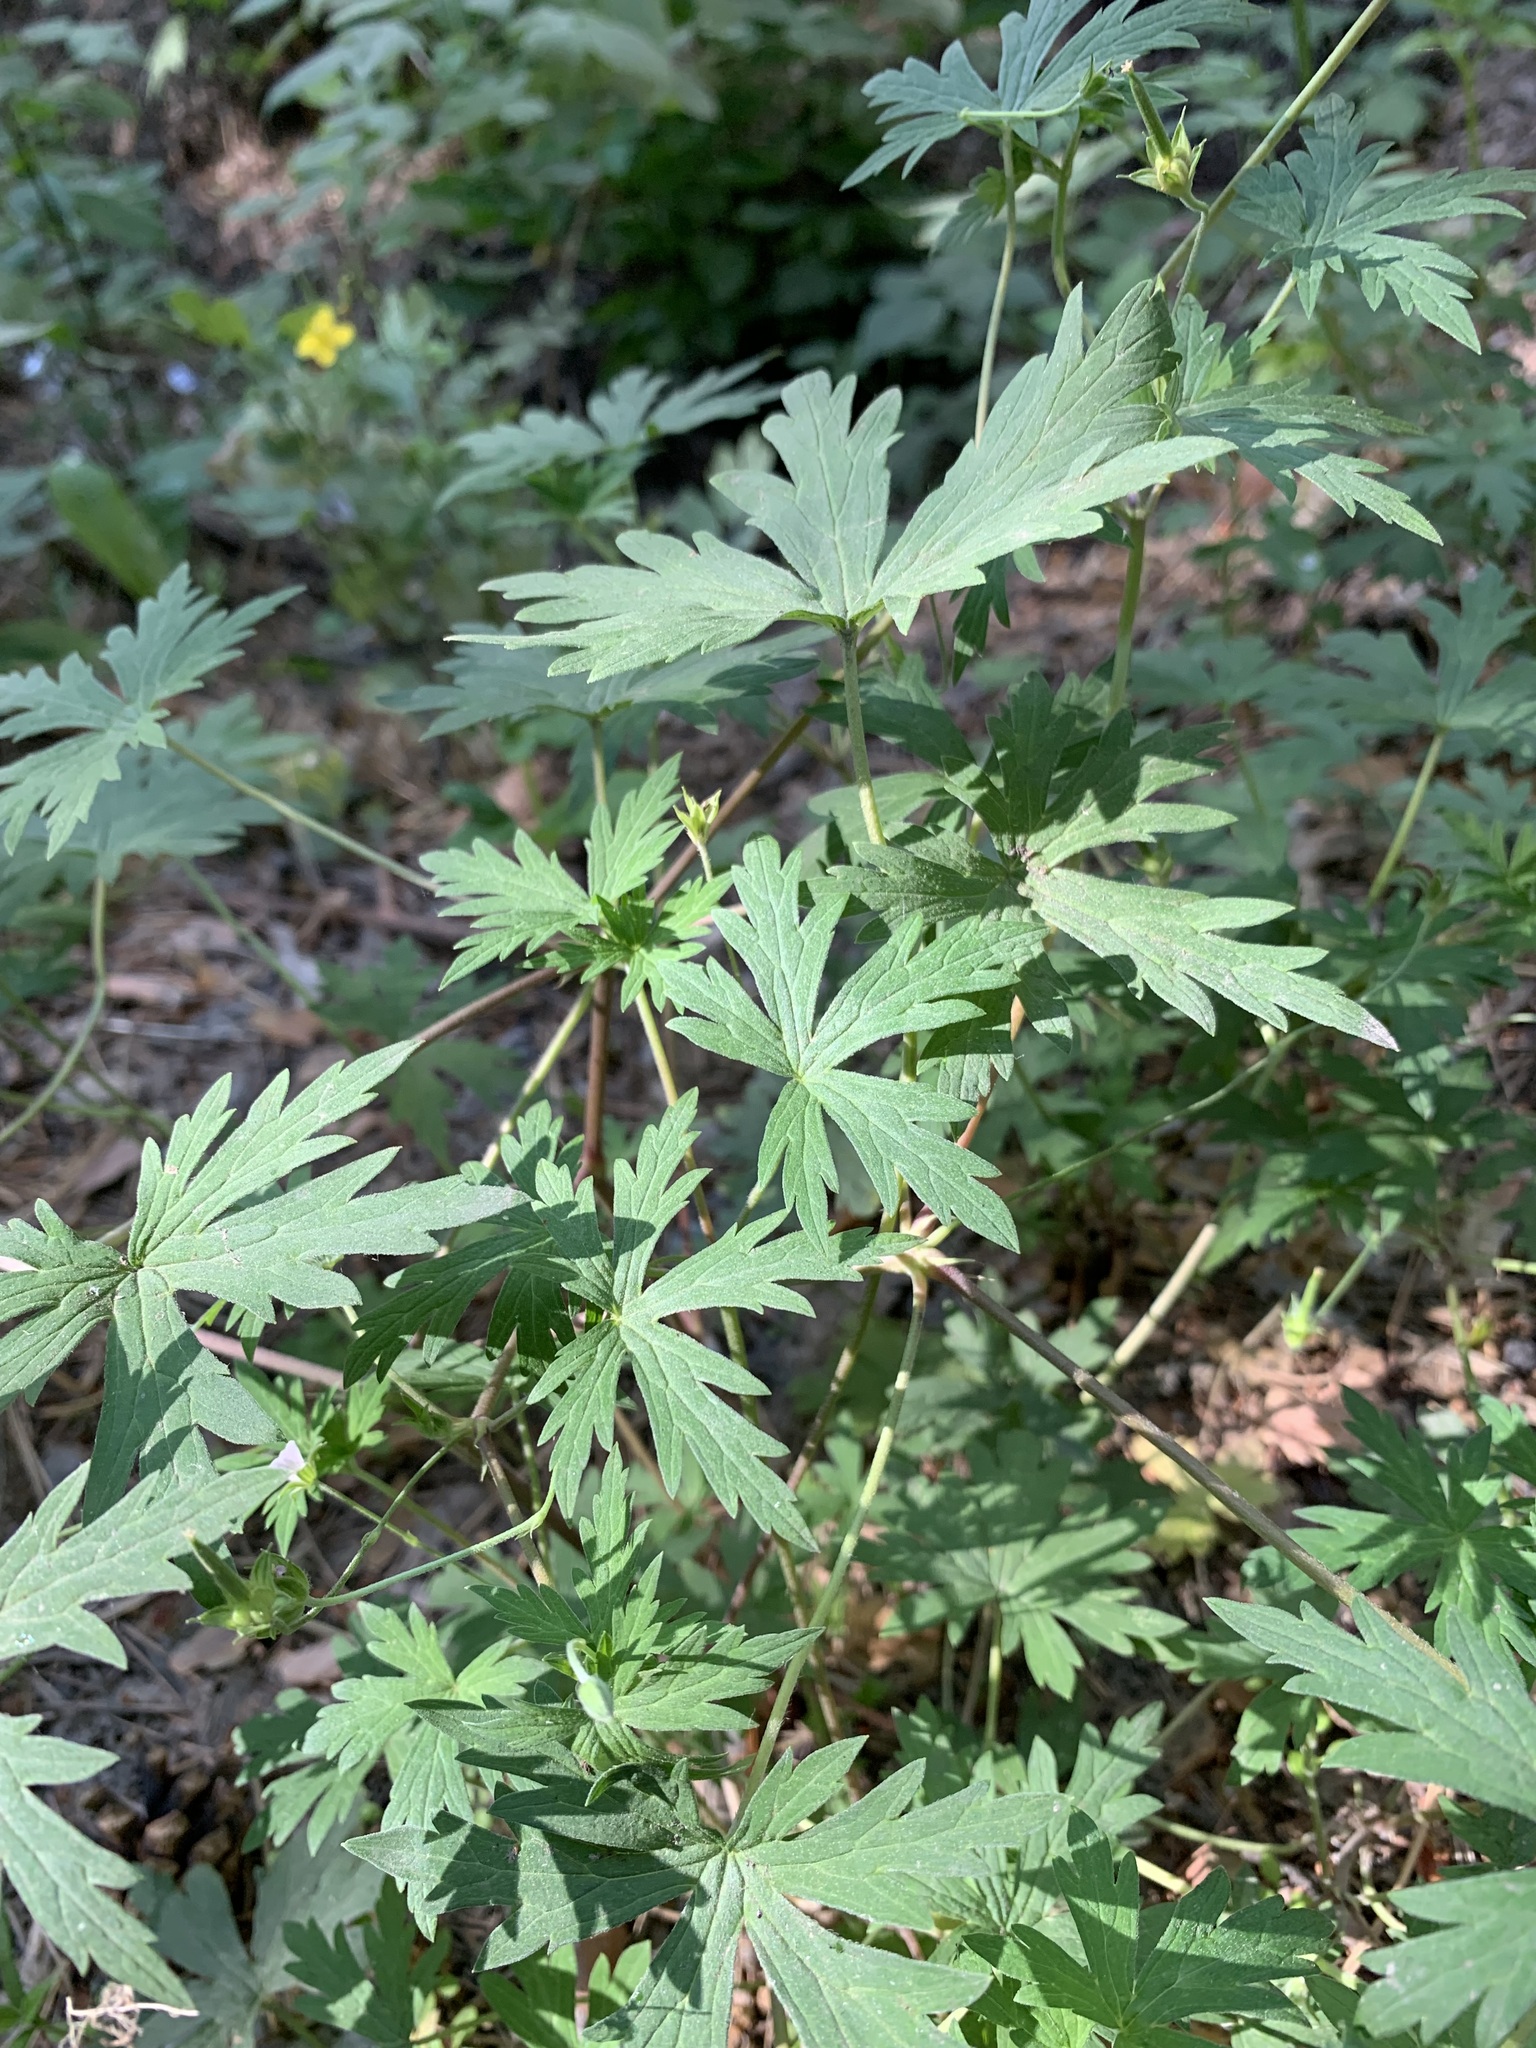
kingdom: Plantae
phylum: Tracheophyta
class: Magnoliopsida
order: Geraniales
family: Geraniaceae
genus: Geranium
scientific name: Geranium sibiricum
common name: Siberian crane's-bill
